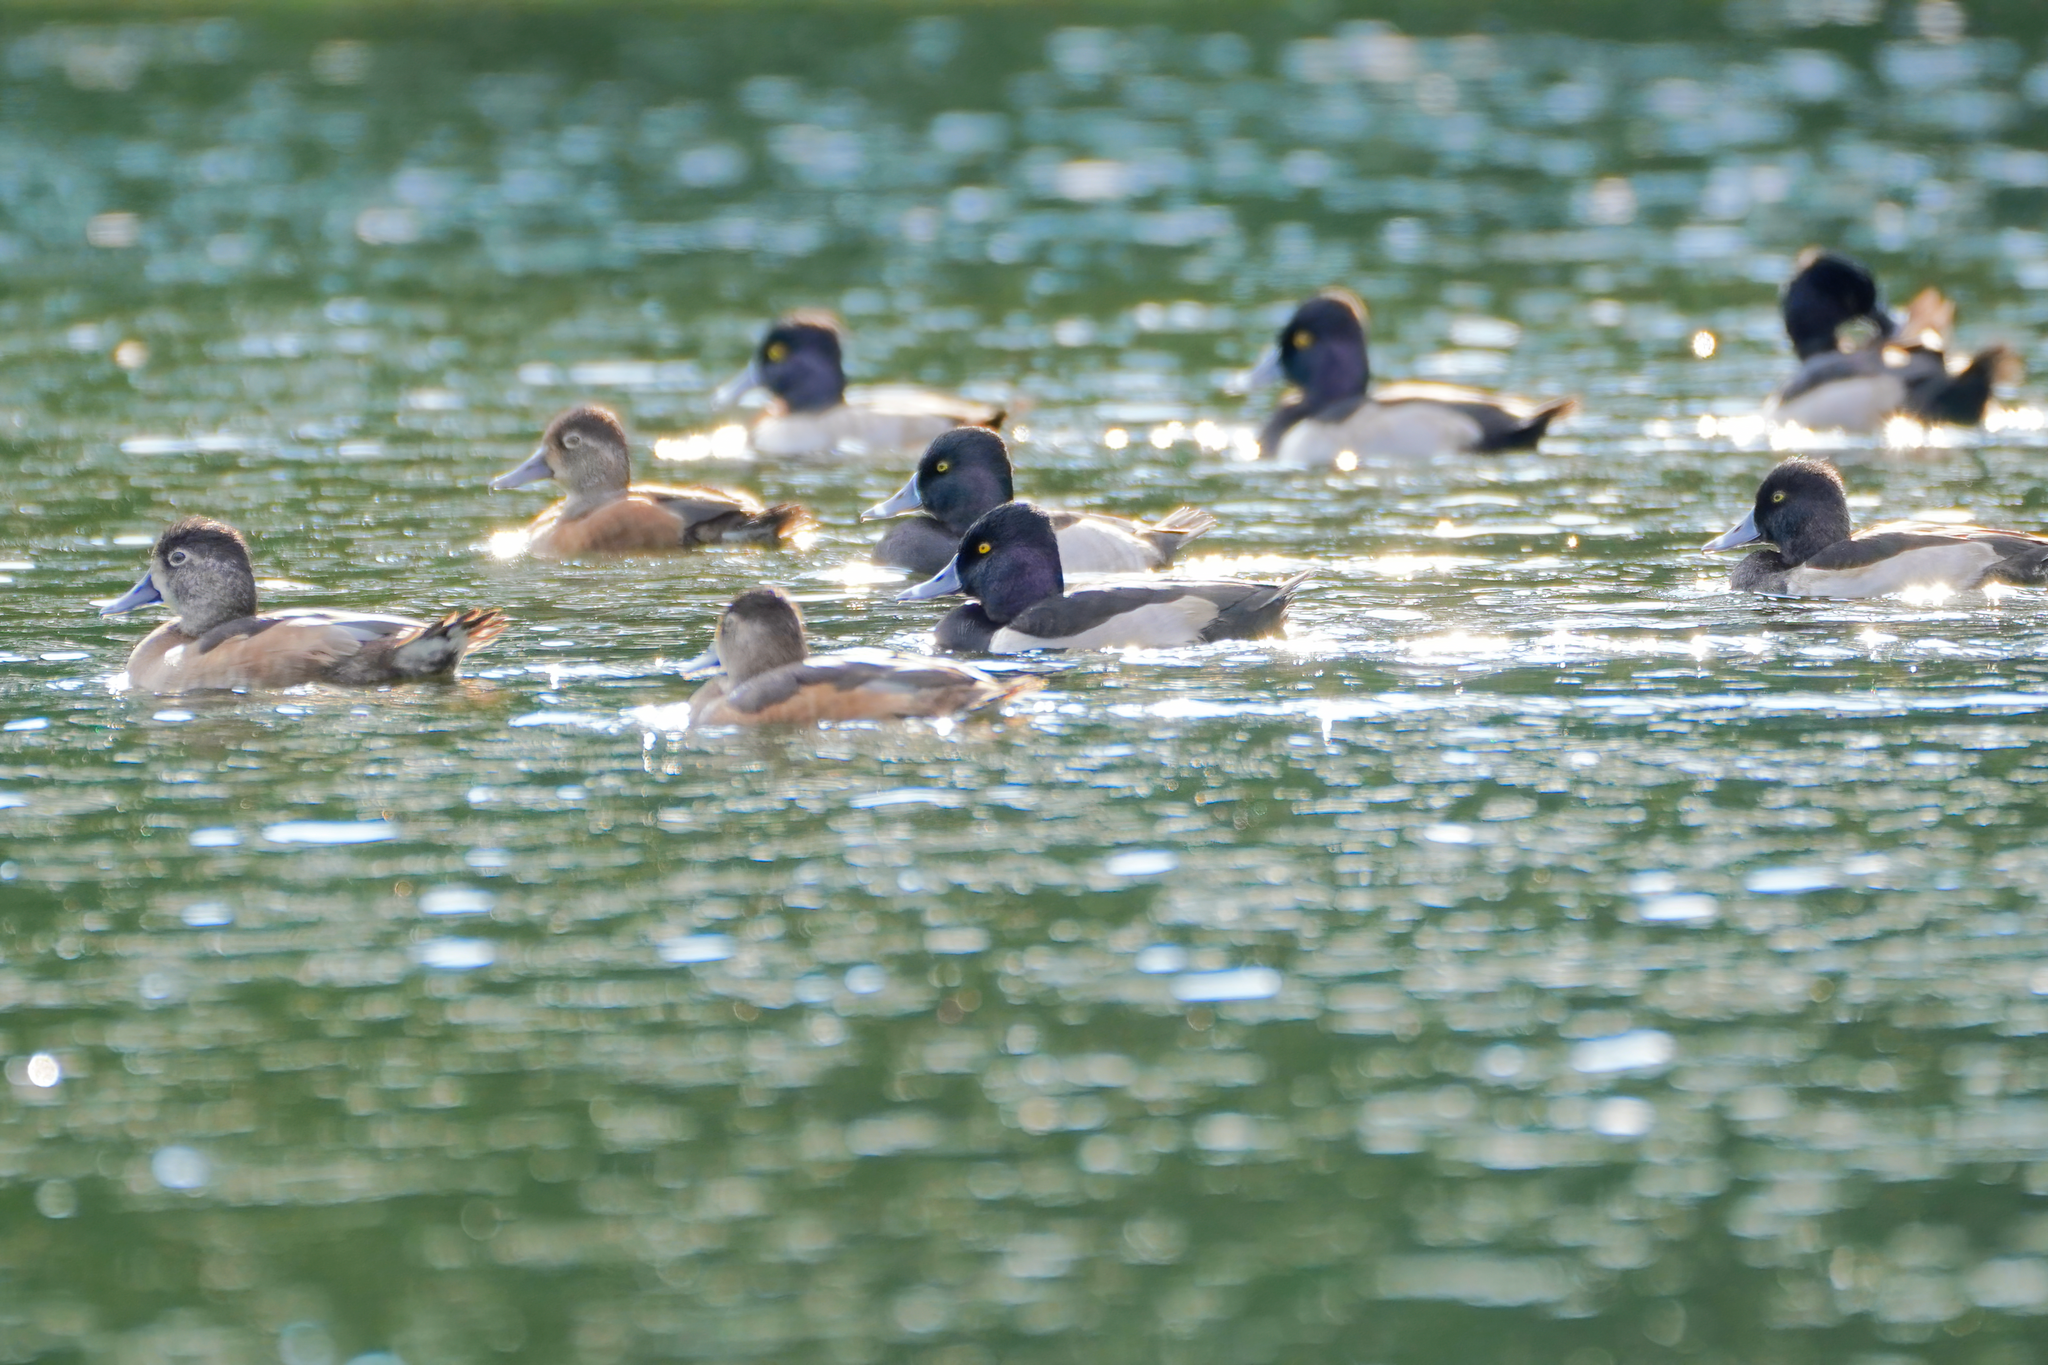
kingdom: Animalia
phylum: Chordata
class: Aves
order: Anseriformes
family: Anatidae
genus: Aythya
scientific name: Aythya collaris
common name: Ring-necked duck
